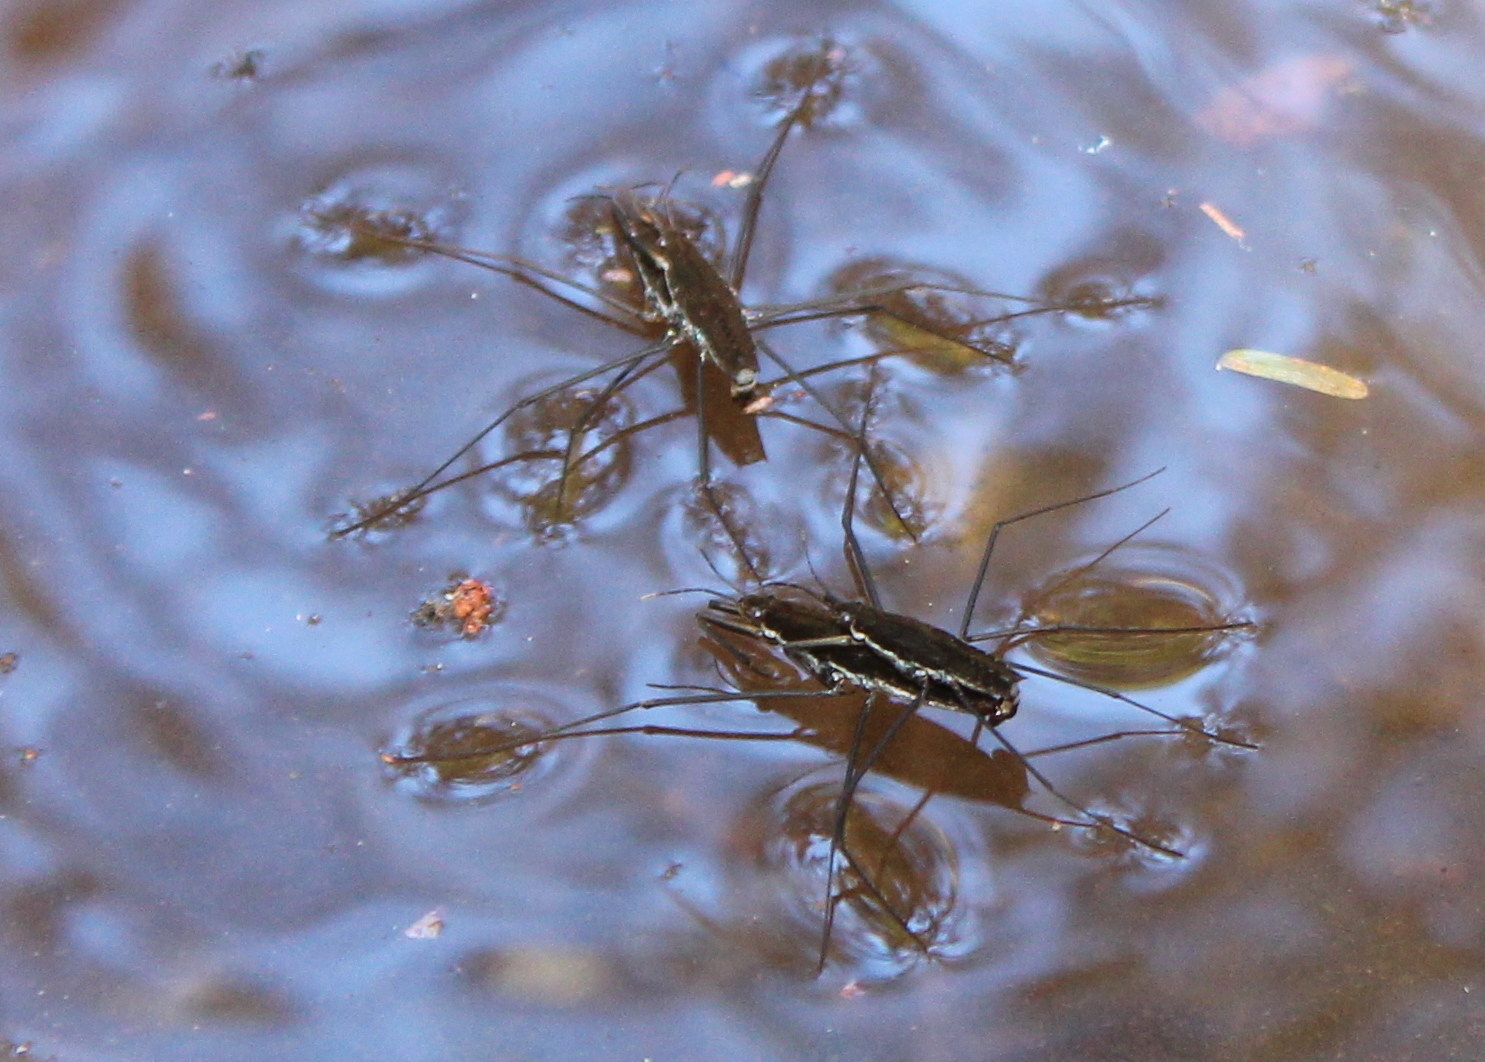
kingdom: Animalia
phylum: Arthropoda
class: Insecta
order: Hemiptera
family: Gerridae
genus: Aquarius
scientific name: Aquarius remigis
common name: Common water strider
